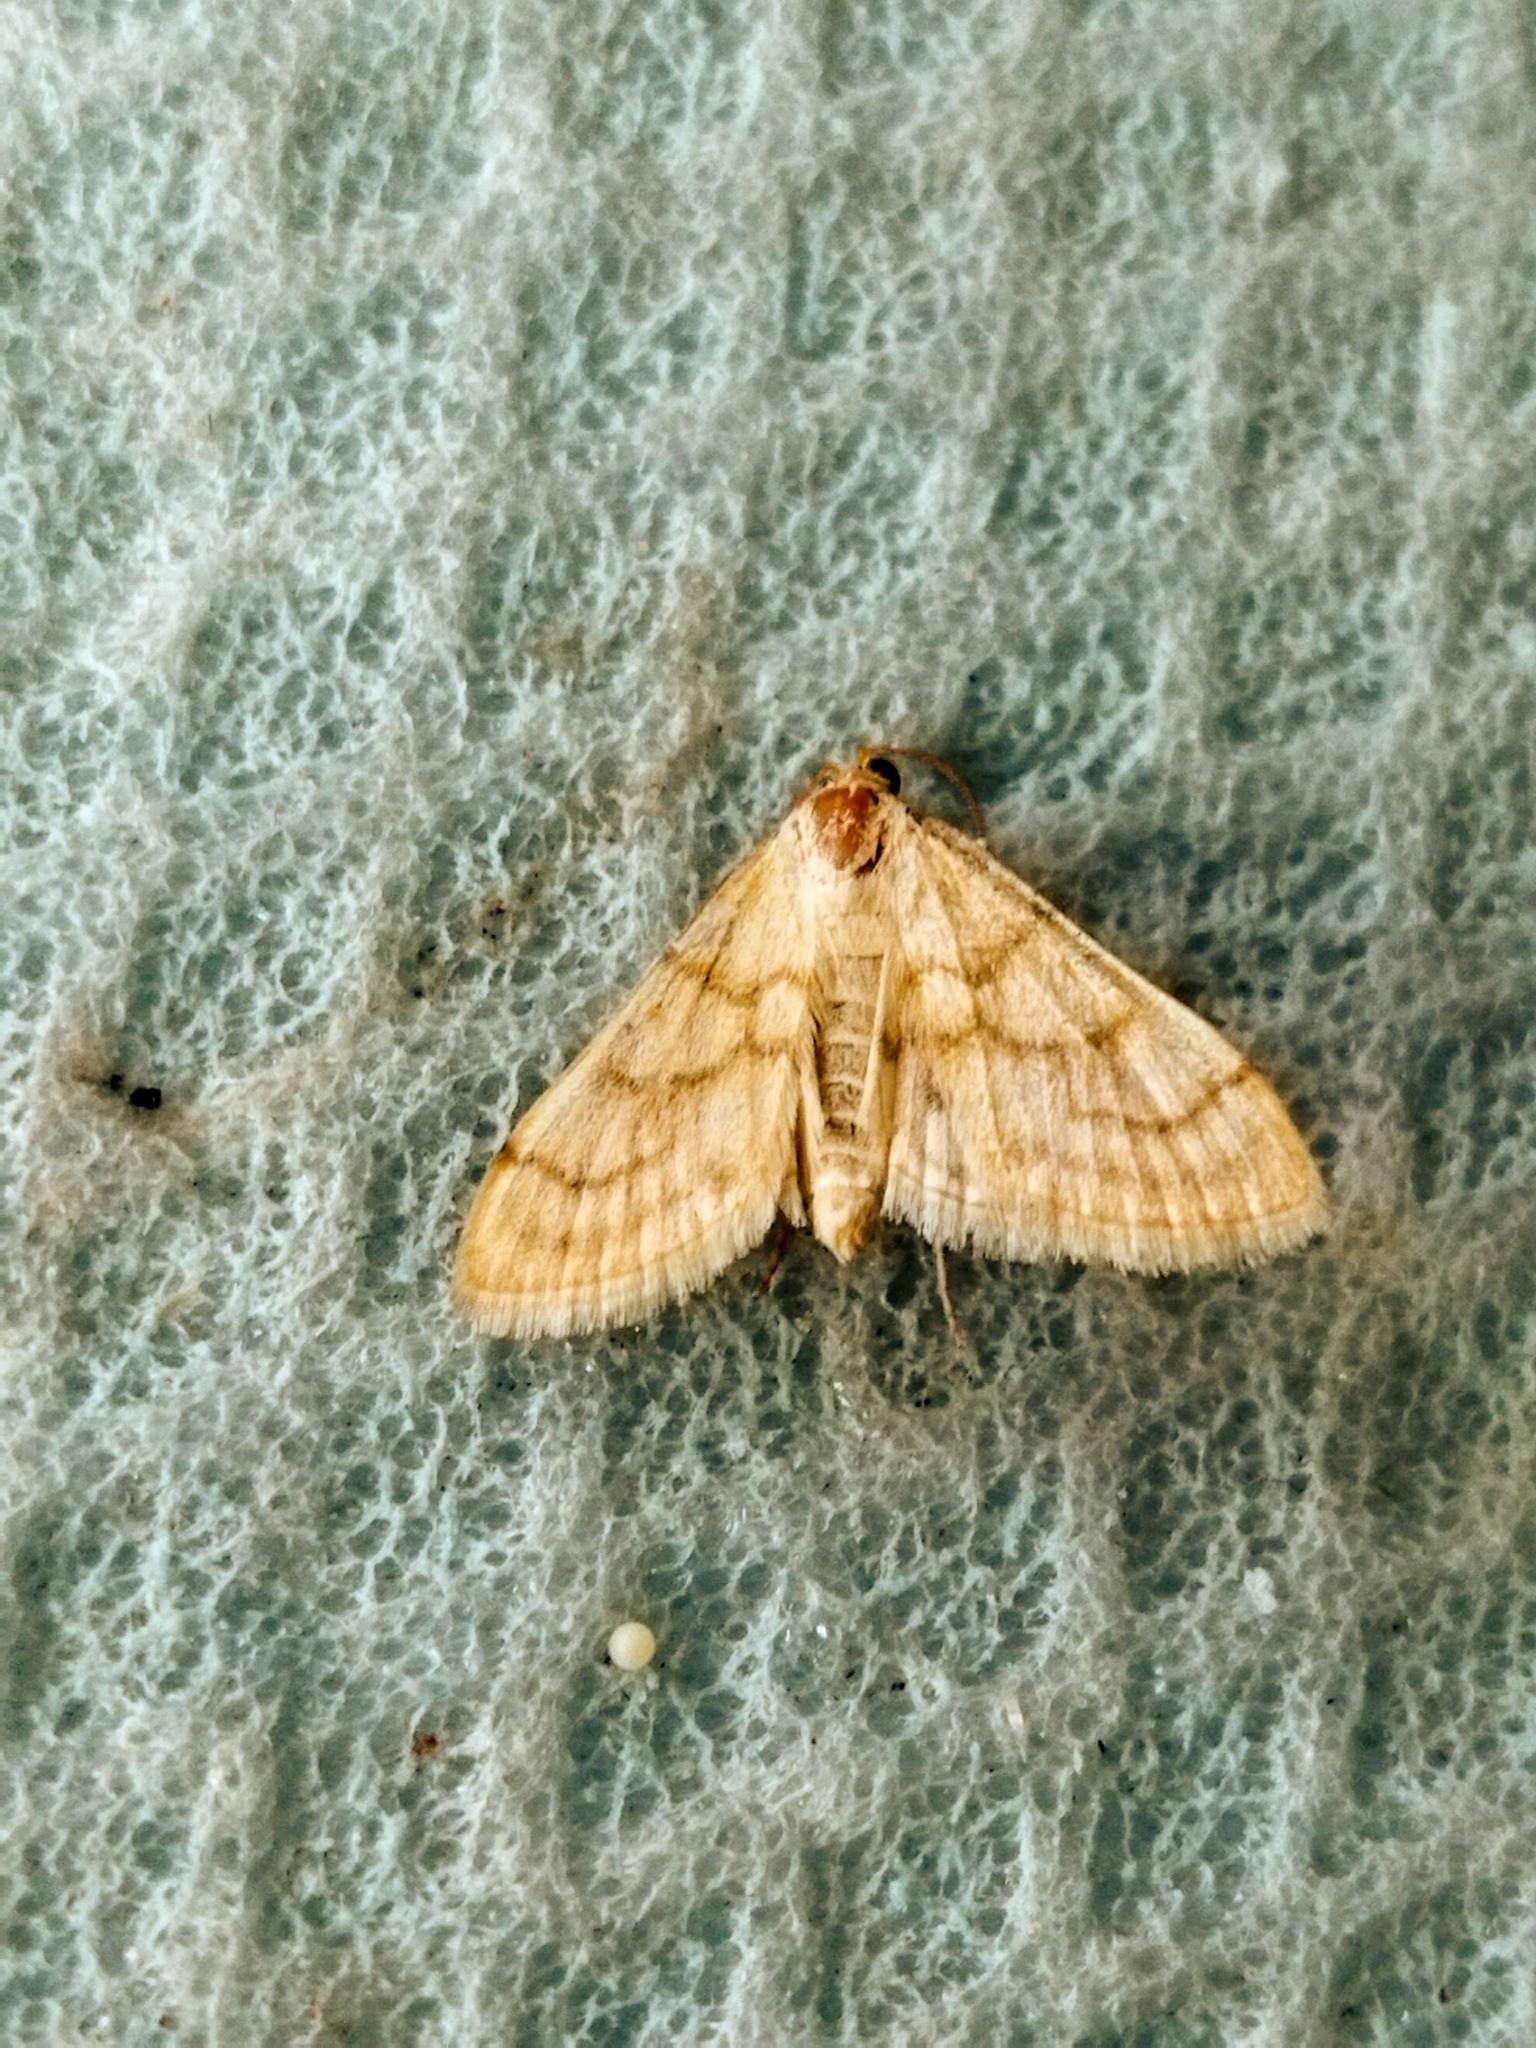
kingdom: Animalia
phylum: Arthropoda
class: Insecta
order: Lepidoptera
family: Crambidae
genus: Paracorsia
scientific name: Paracorsia repandalis
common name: Mullein moth
